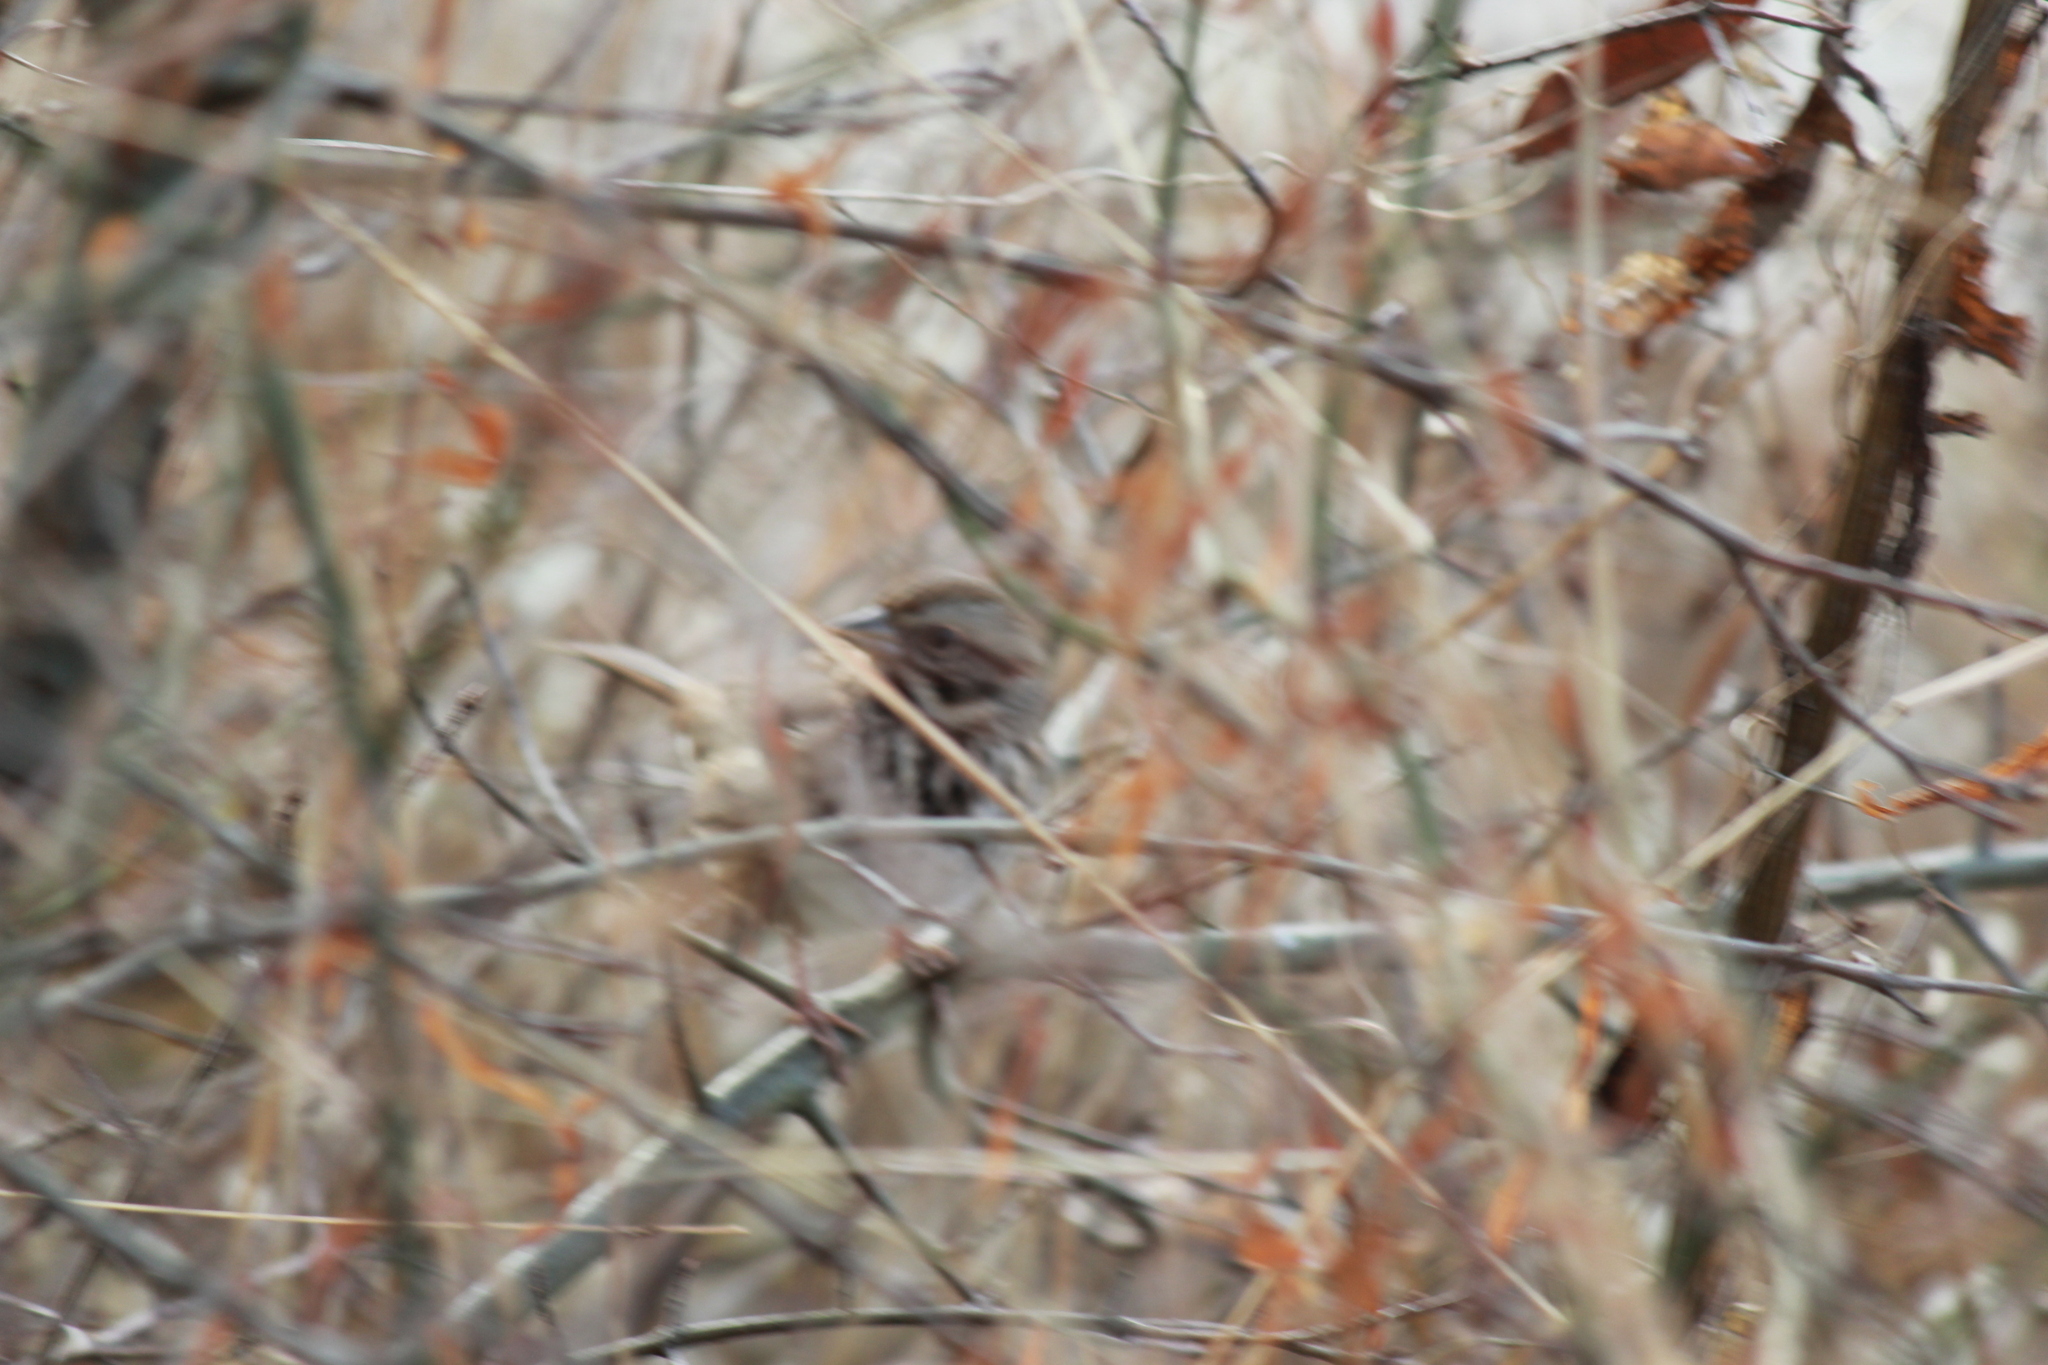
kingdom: Animalia
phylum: Chordata
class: Aves
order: Passeriformes
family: Passerellidae
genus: Melospiza
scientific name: Melospiza melodia
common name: Song sparrow
